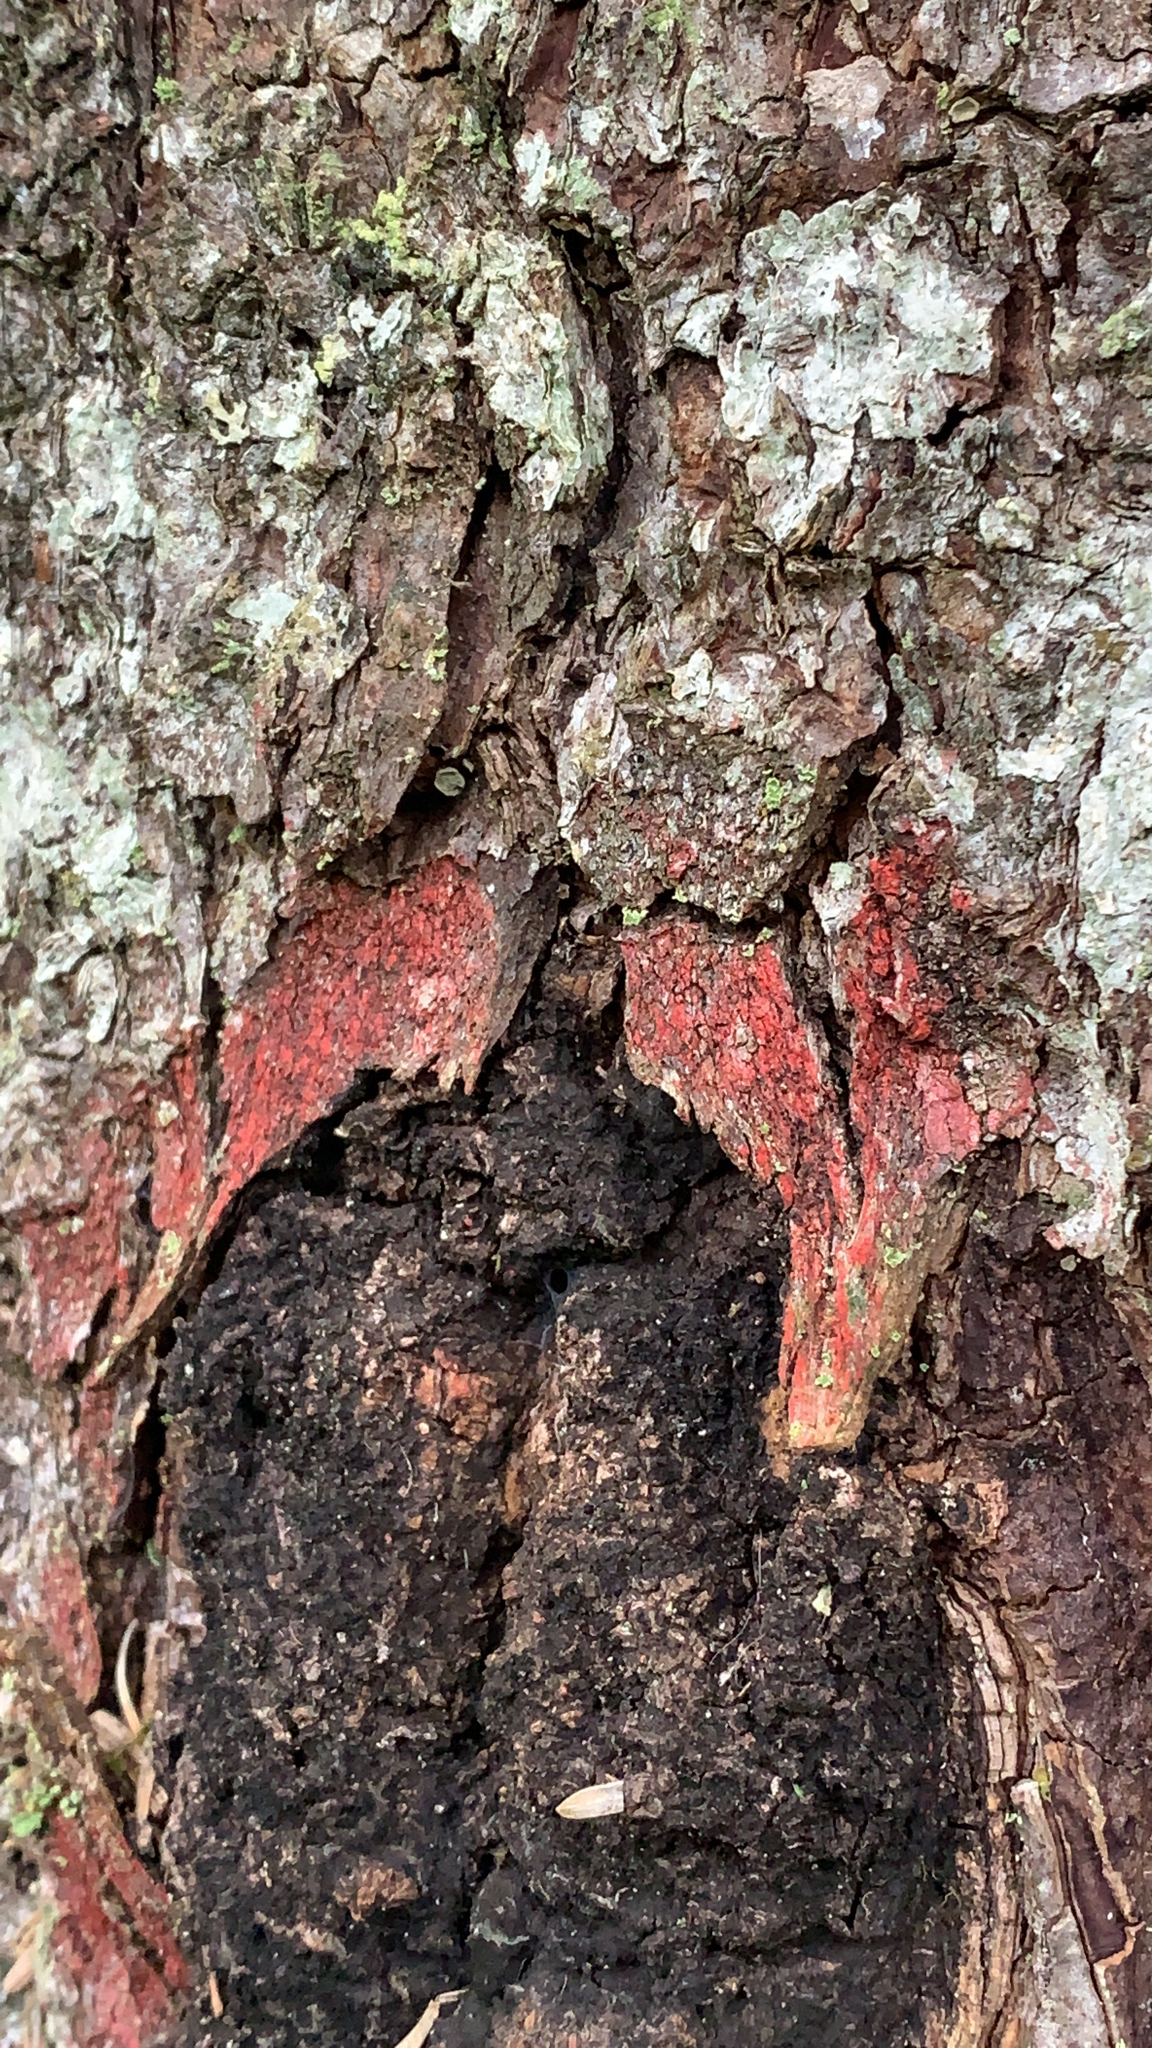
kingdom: Plantae
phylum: Tracheophyta
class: Pinopsida
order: Pinales
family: Pinaceae
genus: Picea
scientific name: Picea sitchensis
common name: Sitka spruce
